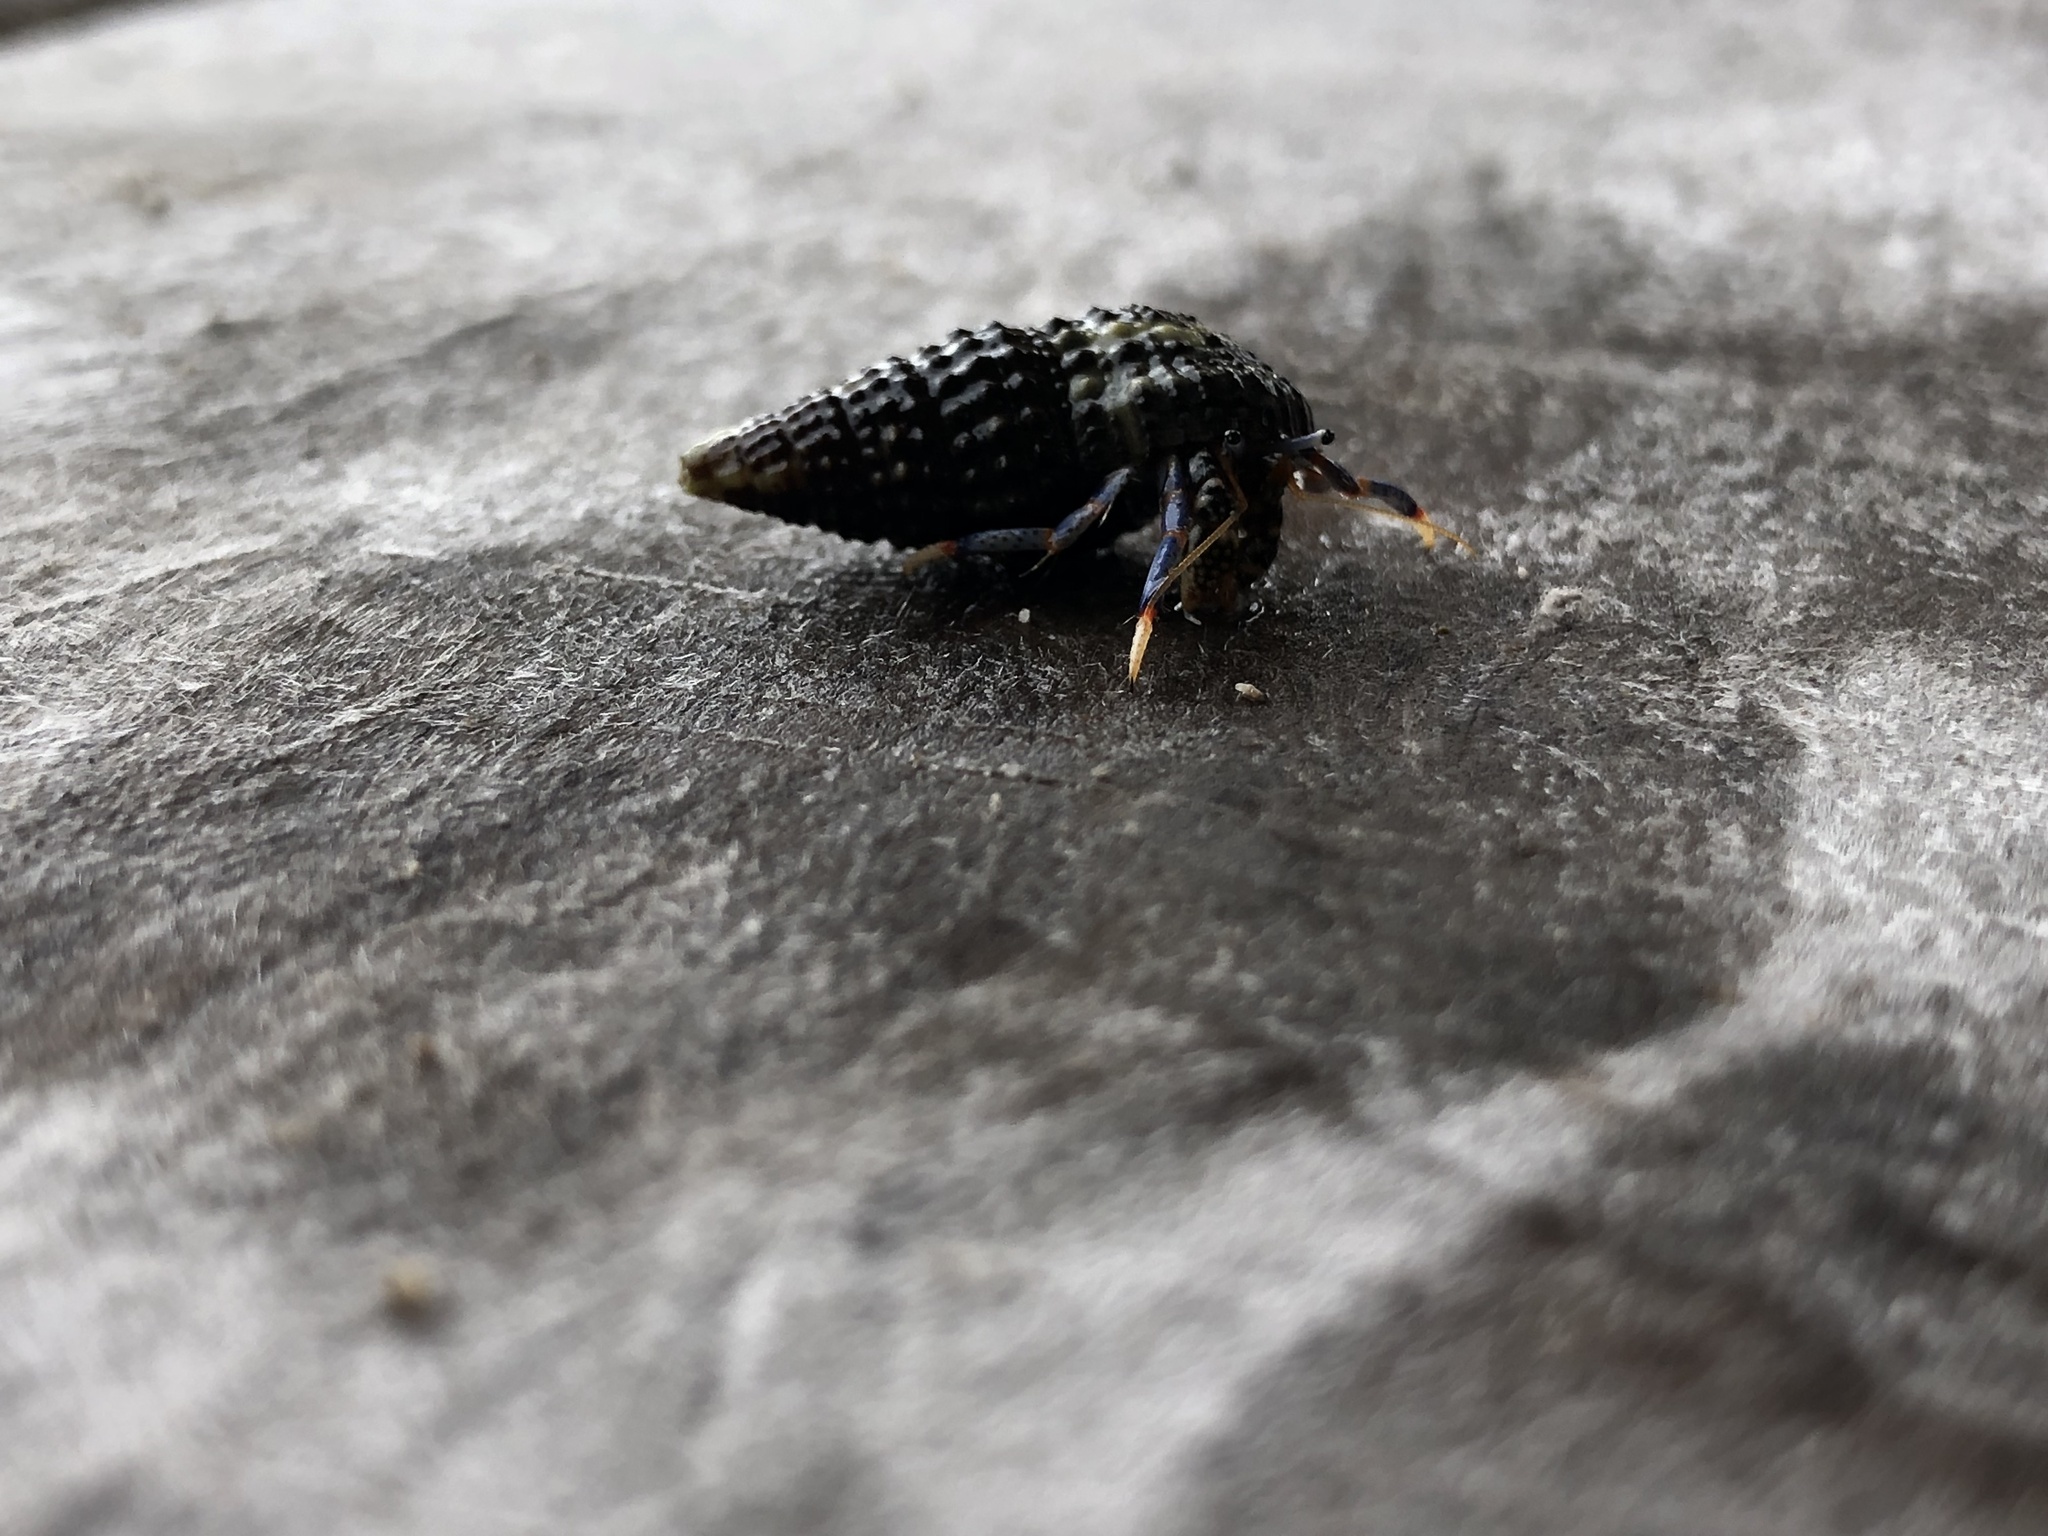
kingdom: Animalia
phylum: Arthropoda
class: Malacostraca
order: Decapoda
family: Diogenidae
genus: Clibanarius
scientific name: Clibanarius tricolor
